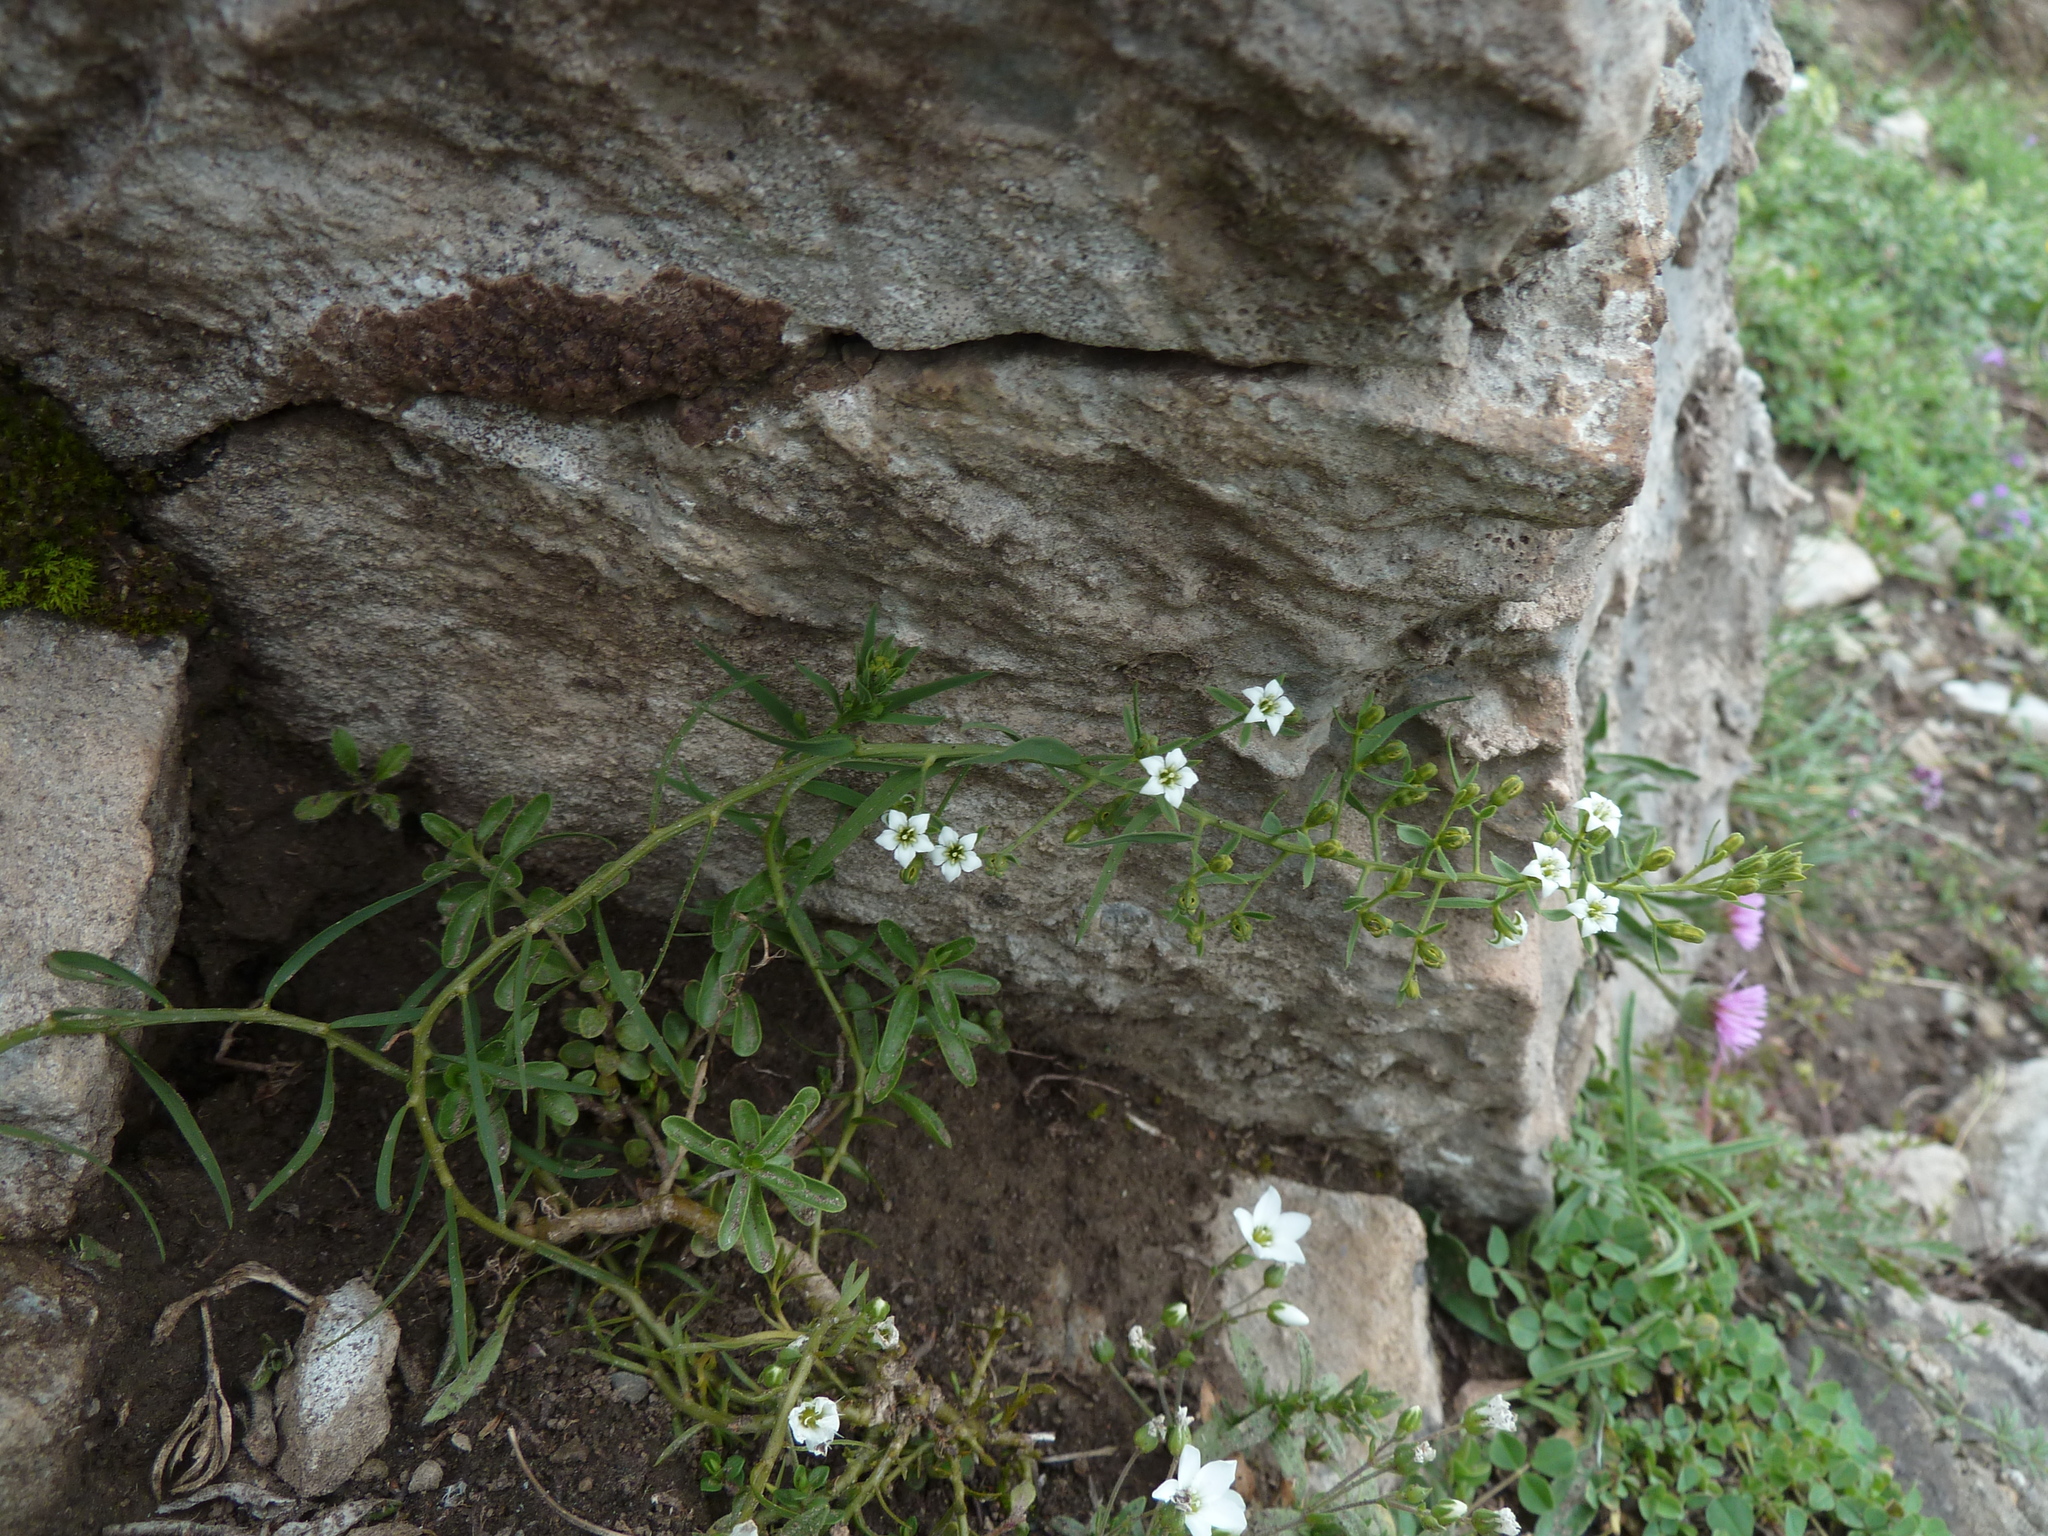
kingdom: Plantae
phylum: Tracheophyta
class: Magnoliopsida
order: Santalales
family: Thesiaceae
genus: Thesium
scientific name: Thesium pyrenaicum
